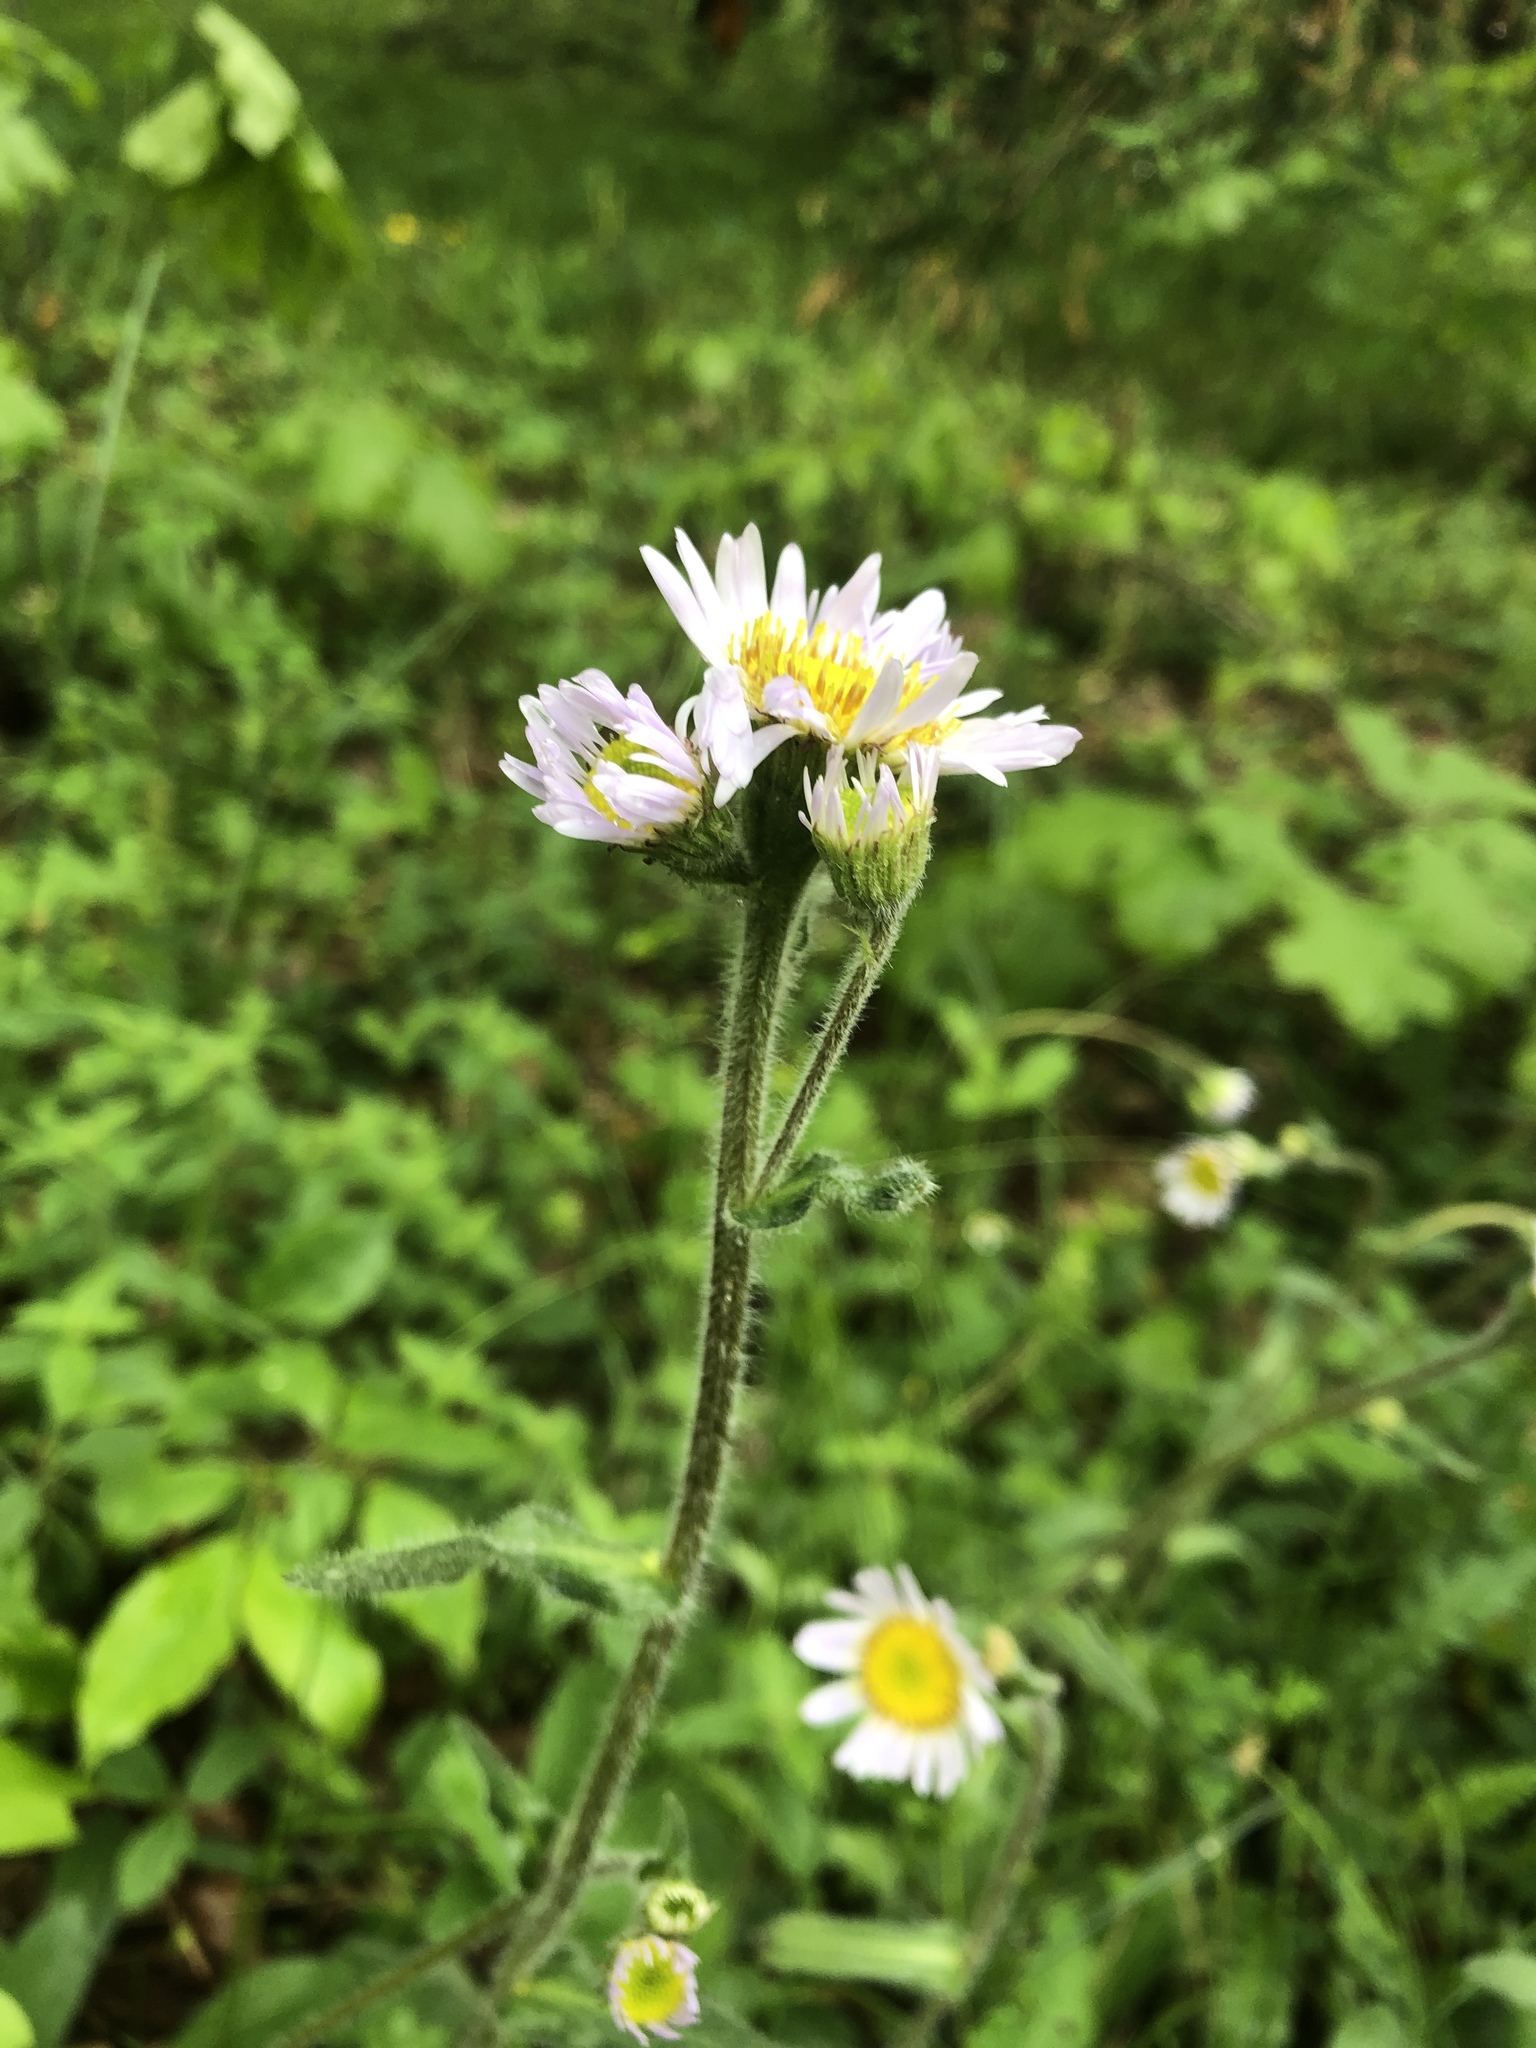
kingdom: Plantae
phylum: Tracheophyta
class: Magnoliopsida
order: Asterales
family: Asteraceae
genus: Erigeron
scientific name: Erigeron pulchellus
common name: Hairy fleabane
